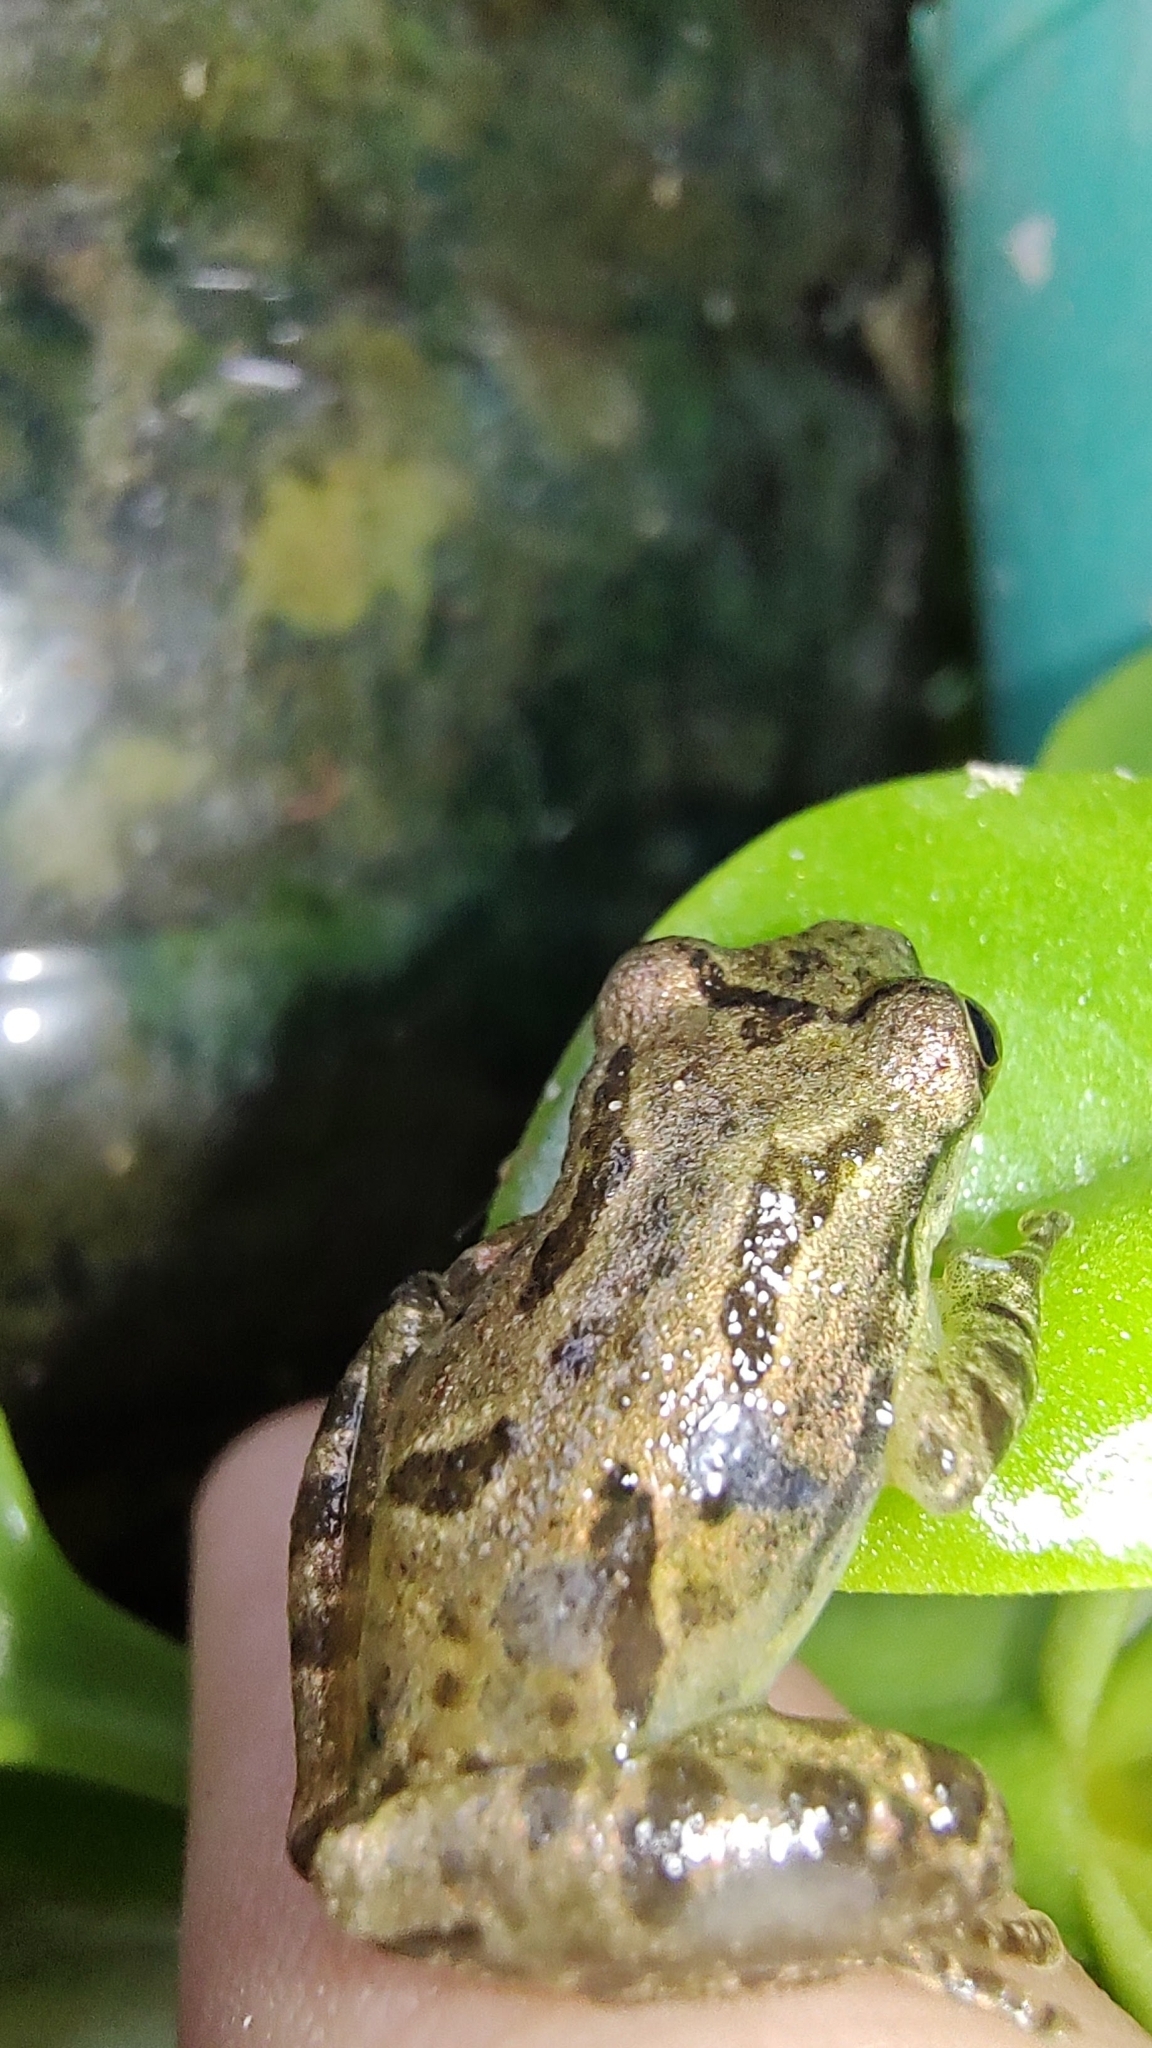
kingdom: Animalia
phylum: Chordata
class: Amphibia
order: Anura
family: Hylidae
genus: Scinax
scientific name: Scinax x-signatus
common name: Venezuela snouted treefrog
